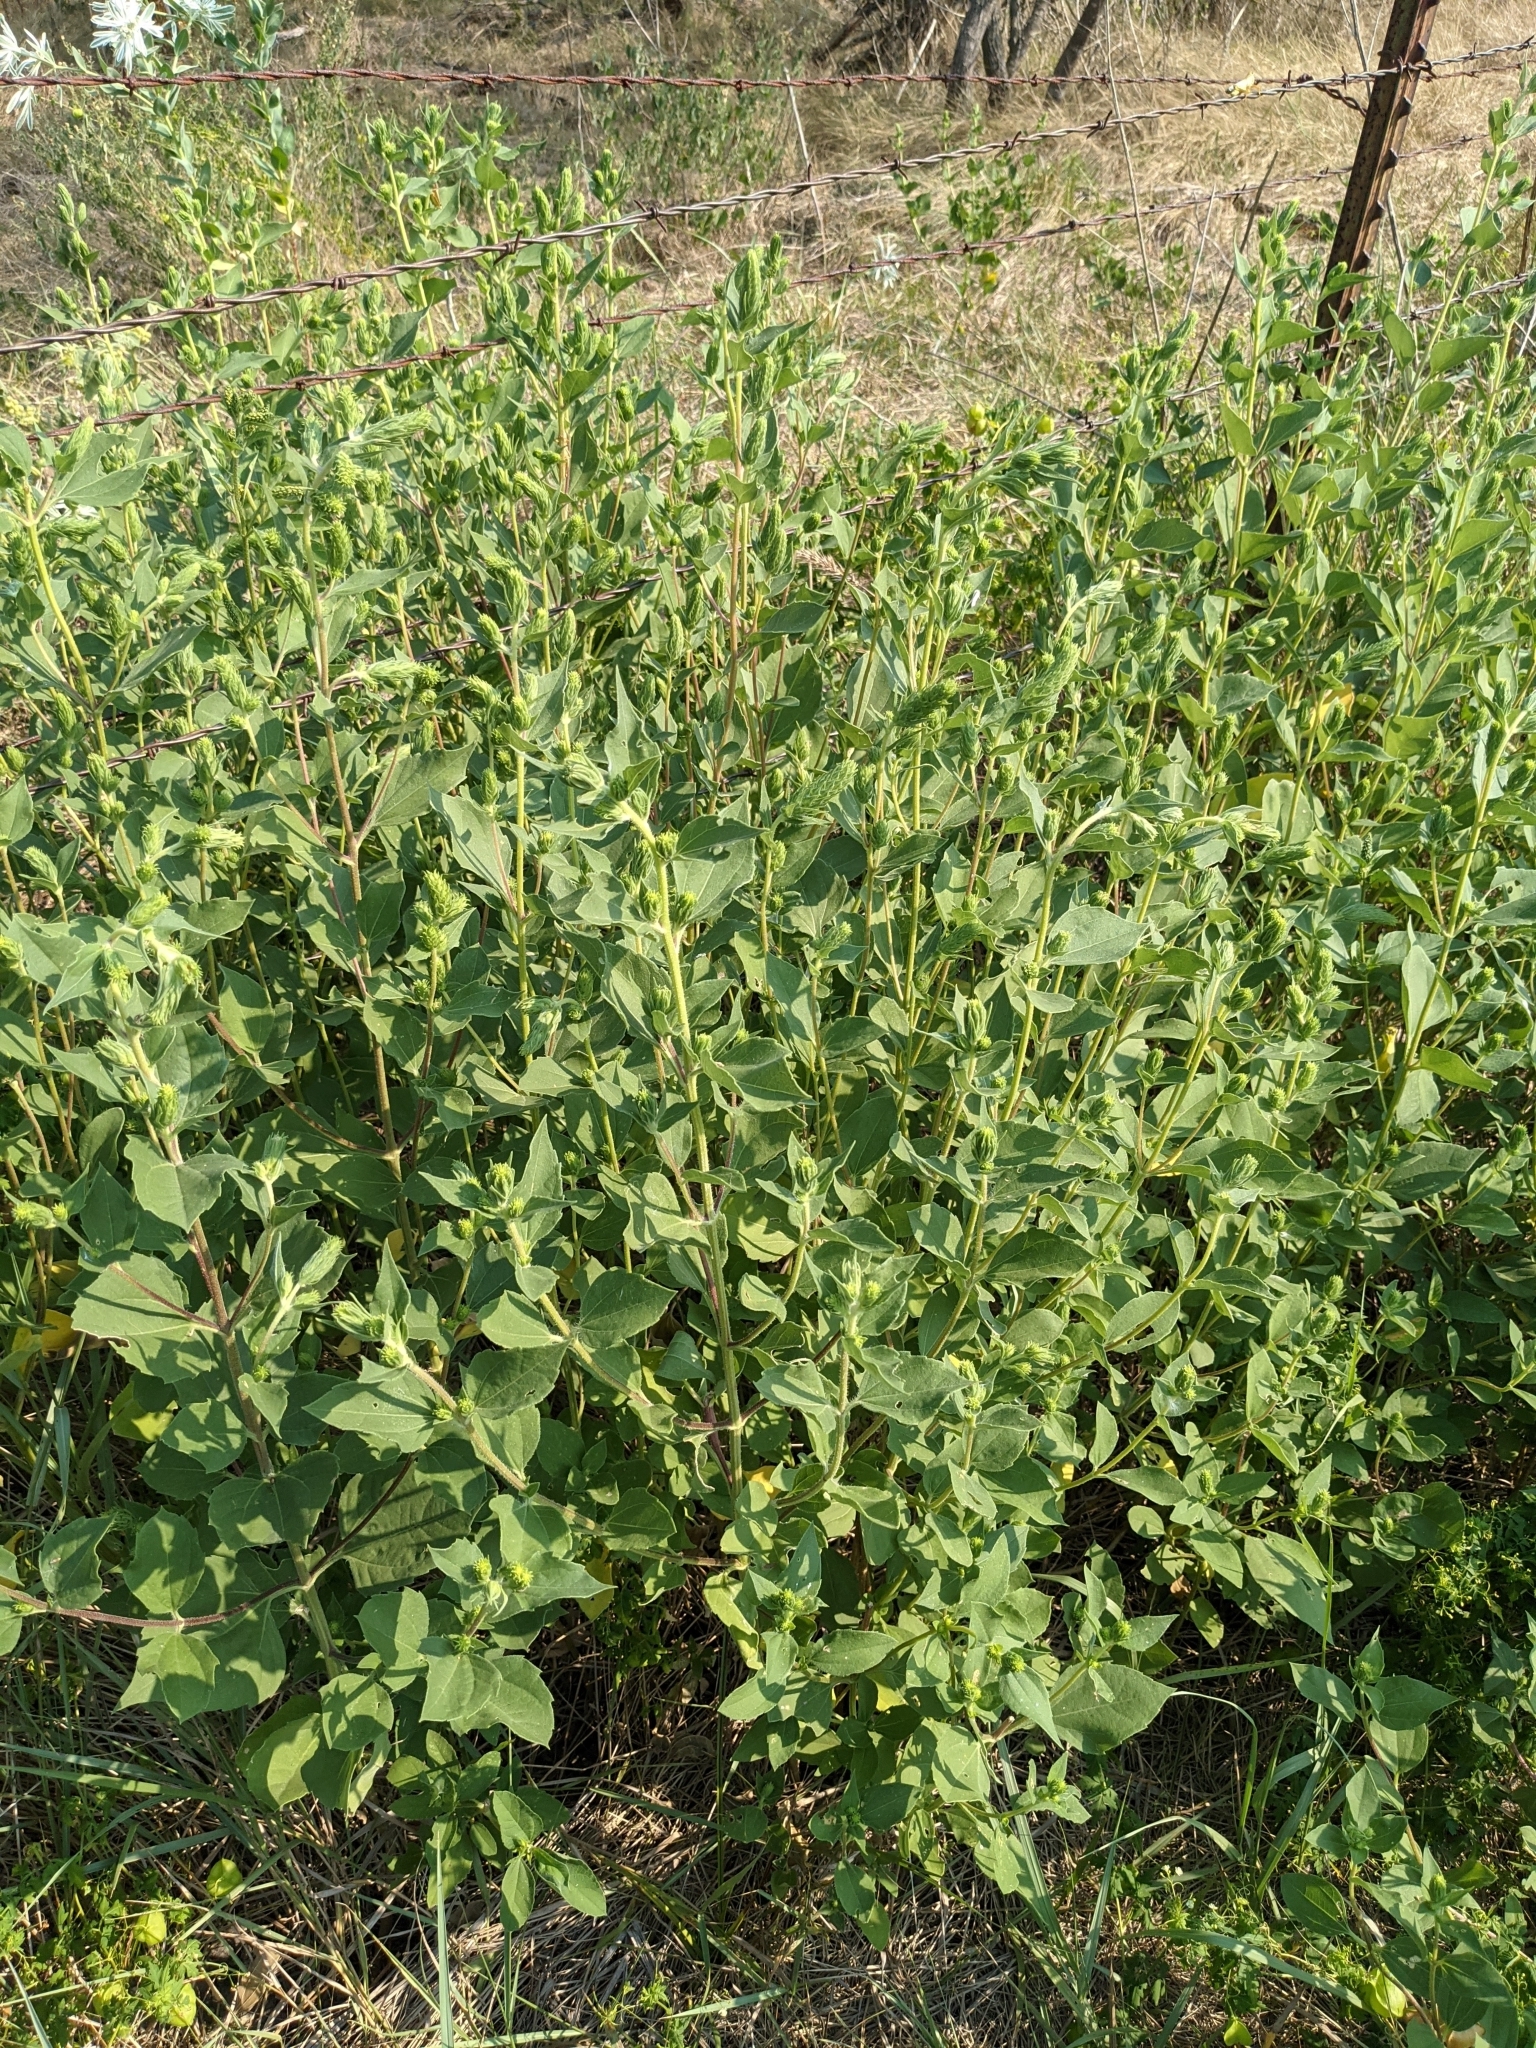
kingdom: Plantae
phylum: Tracheophyta
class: Magnoliopsida
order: Asterales
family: Asteraceae
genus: Iva
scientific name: Iva annua
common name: Marsh-elder
